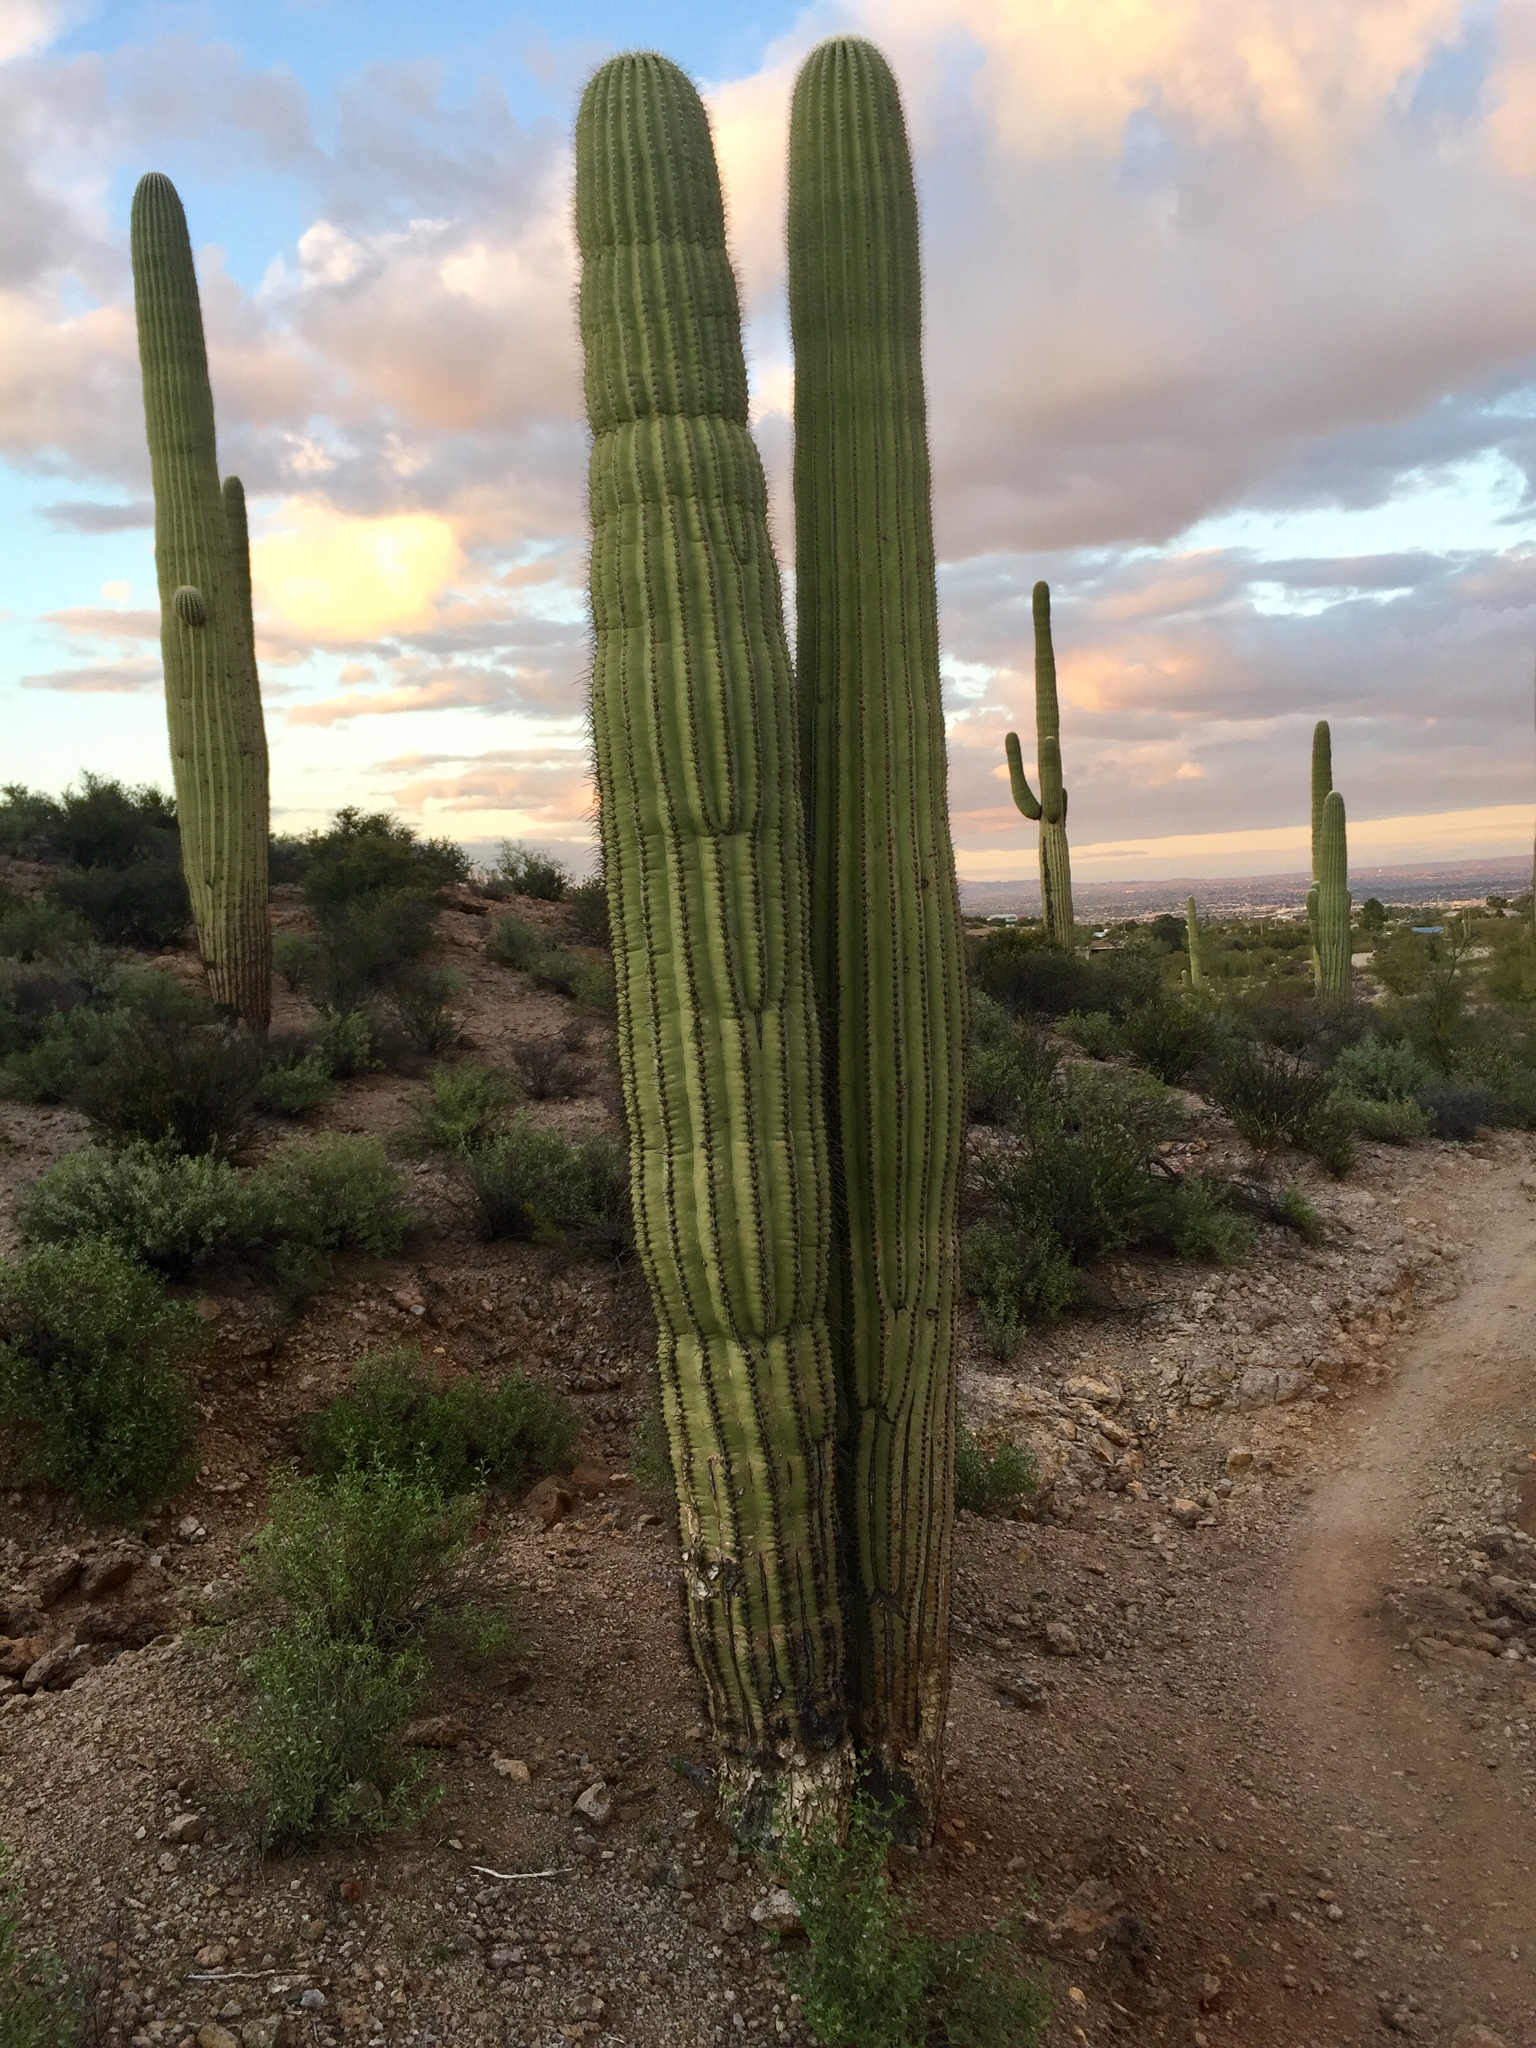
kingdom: Plantae
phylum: Tracheophyta
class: Magnoliopsida
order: Caryophyllales
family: Cactaceae
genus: Carnegiea
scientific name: Carnegiea gigantea
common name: Saguaro
